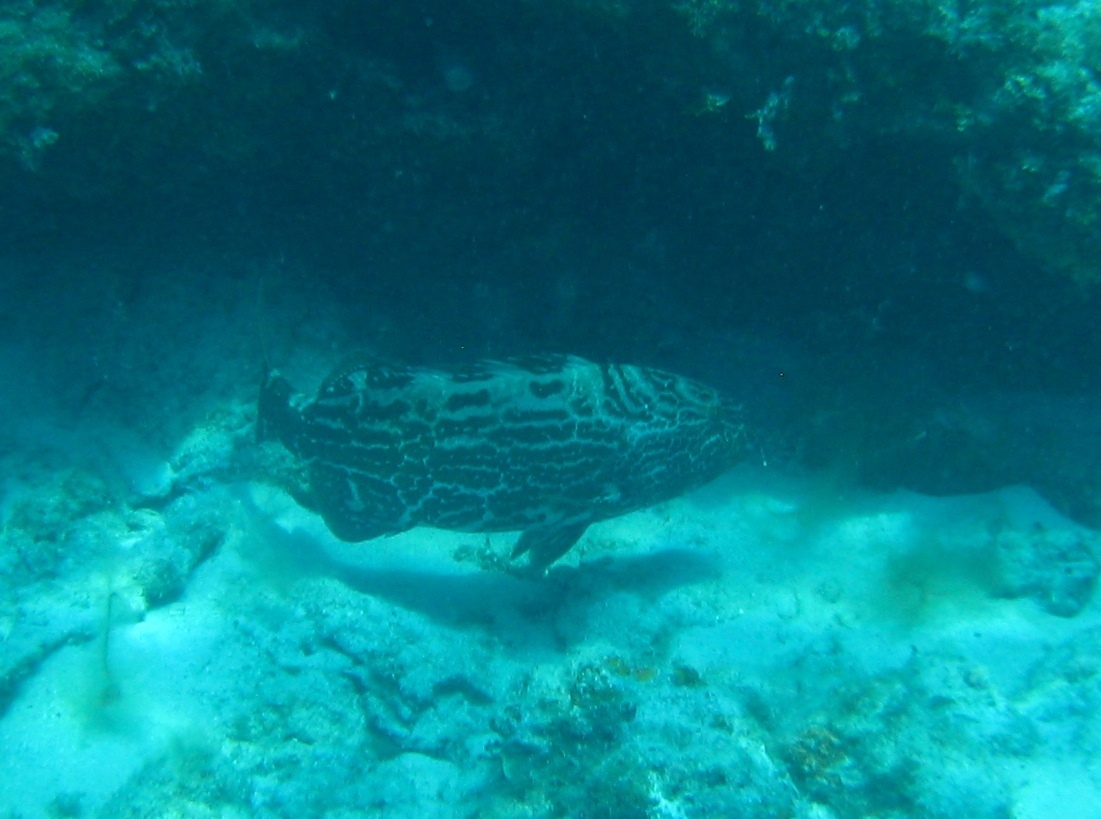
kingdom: Animalia
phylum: Chordata
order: Perciformes
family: Serranidae
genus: Mycteroperca
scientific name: Mycteroperca bonaci
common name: Black grouper
